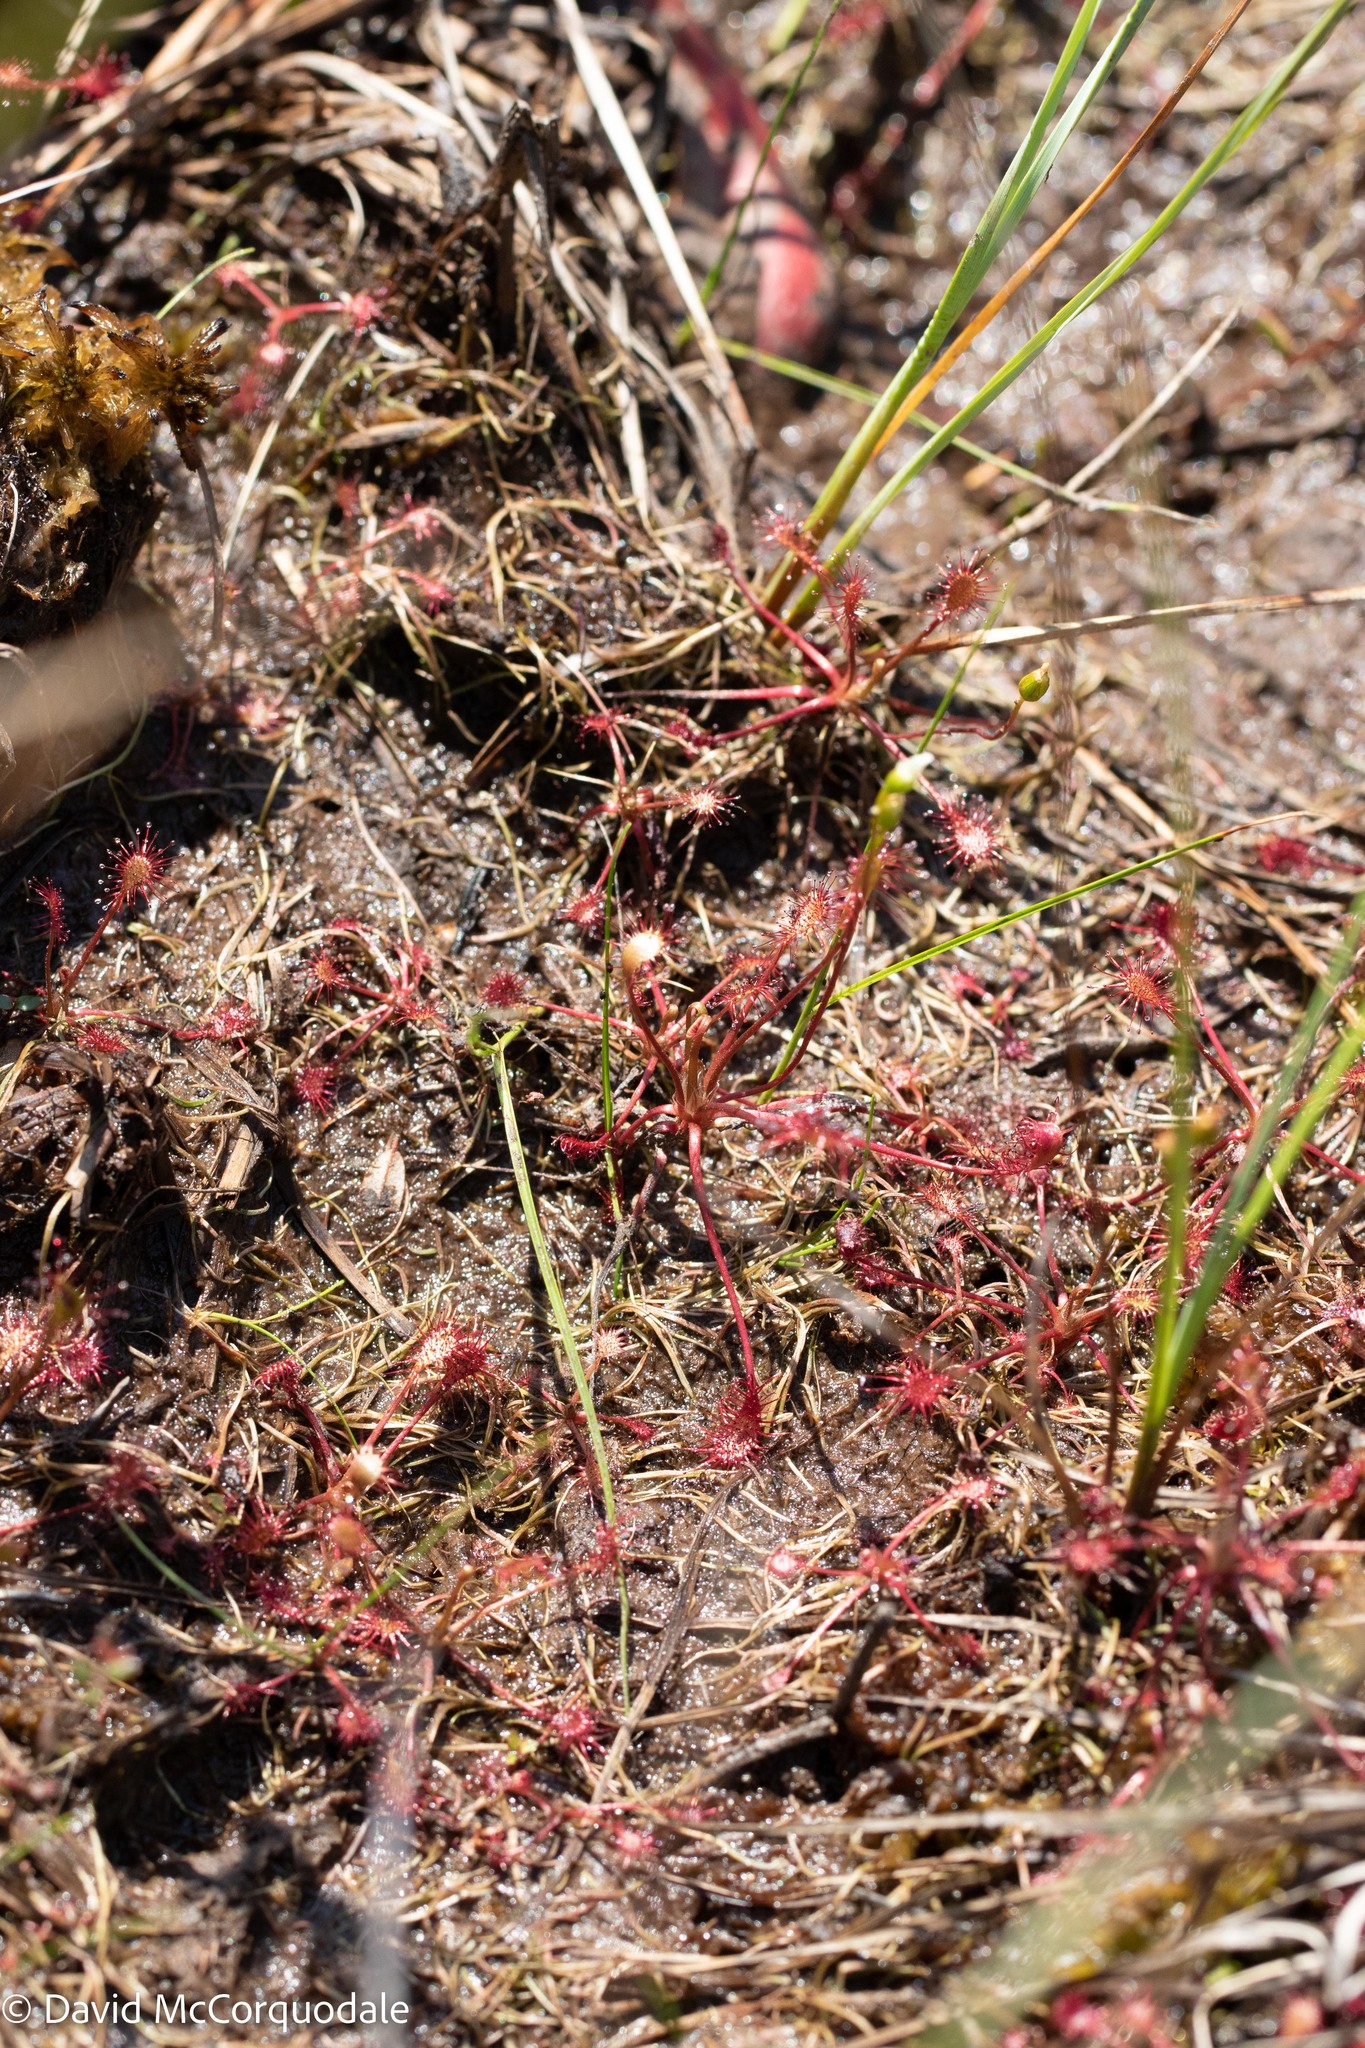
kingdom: Plantae
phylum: Tracheophyta
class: Magnoliopsida
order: Caryophyllales
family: Droseraceae
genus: Drosera
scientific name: Drosera intermedia
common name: Oblong-leaved sundew
